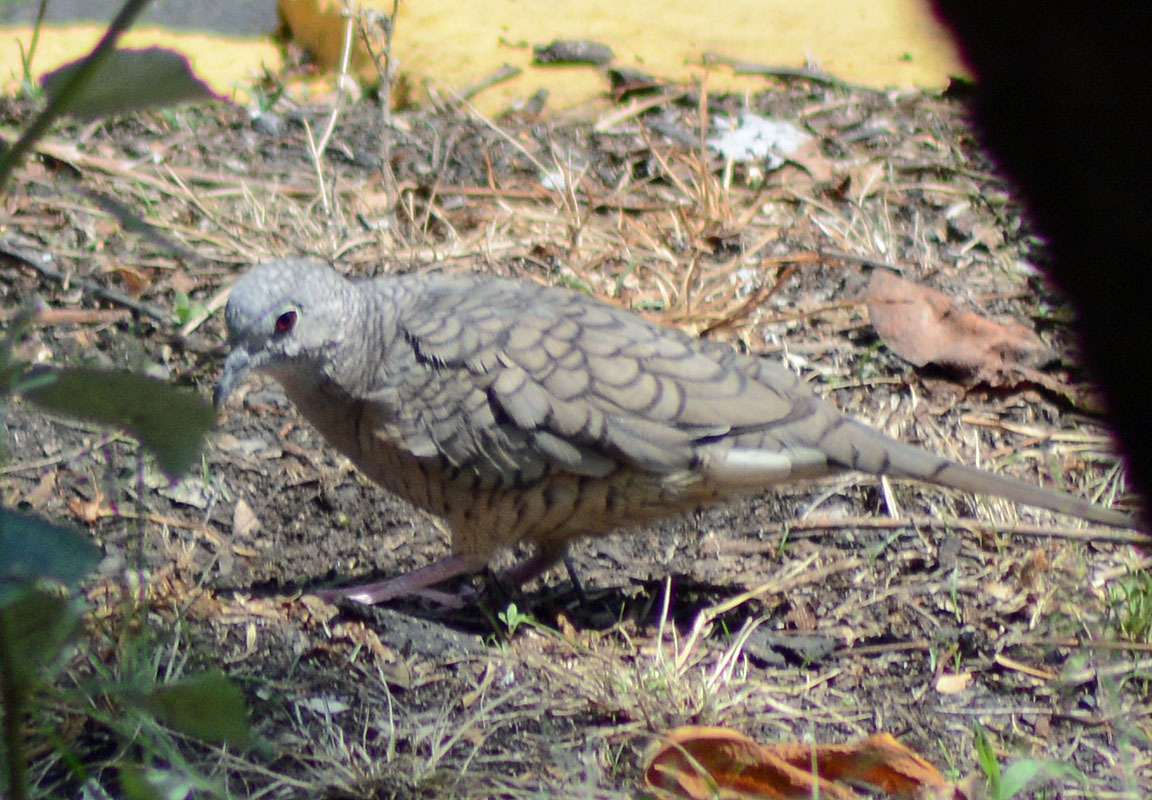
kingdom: Animalia
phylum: Chordata
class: Aves
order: Columbiformes
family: Columbidae
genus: Columbina
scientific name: Columbina inca
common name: Inca dove
